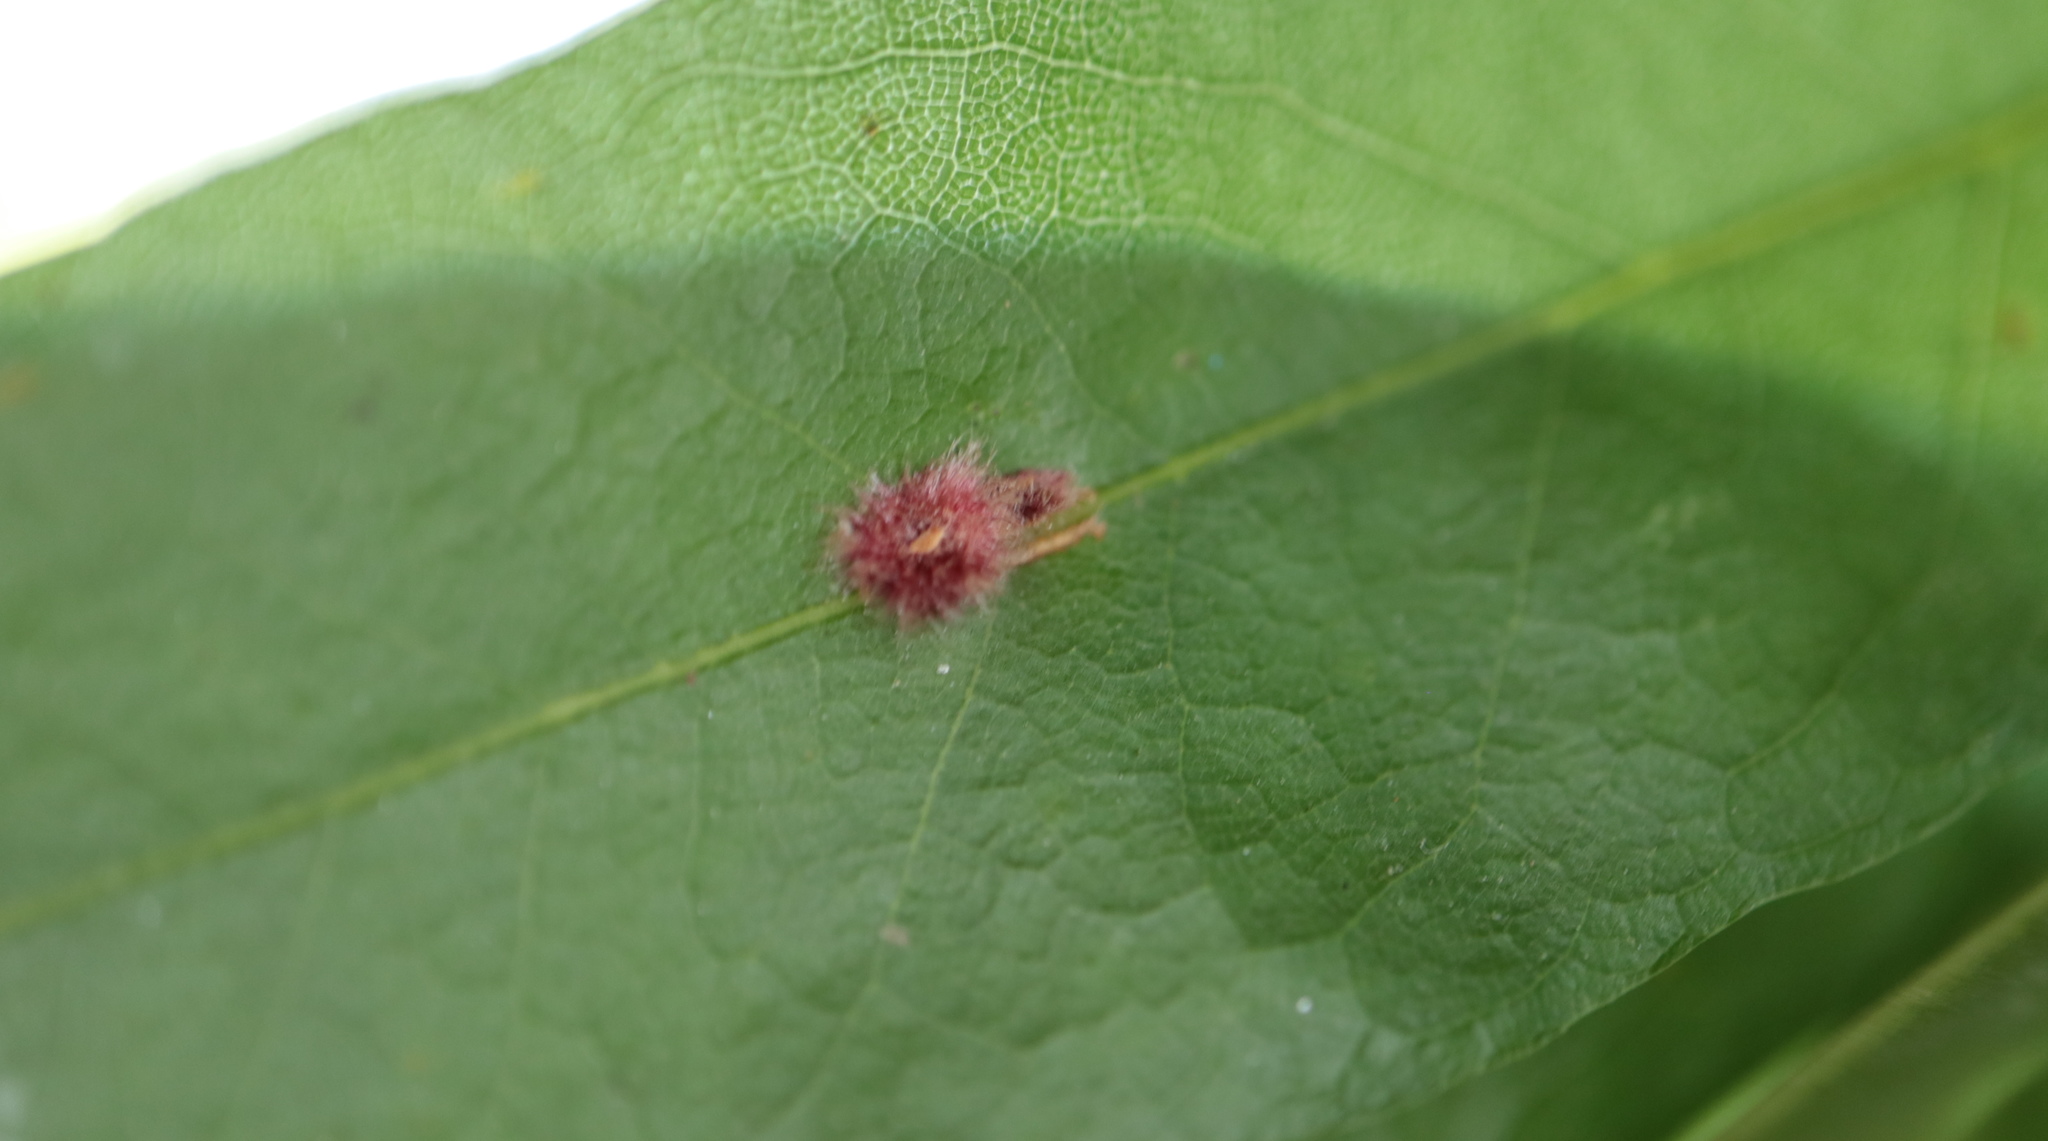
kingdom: Animalia
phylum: Arthropoda
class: Insecta
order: Hymenoptera
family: Cynipidae
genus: Callirhytis
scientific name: Callirhytis
